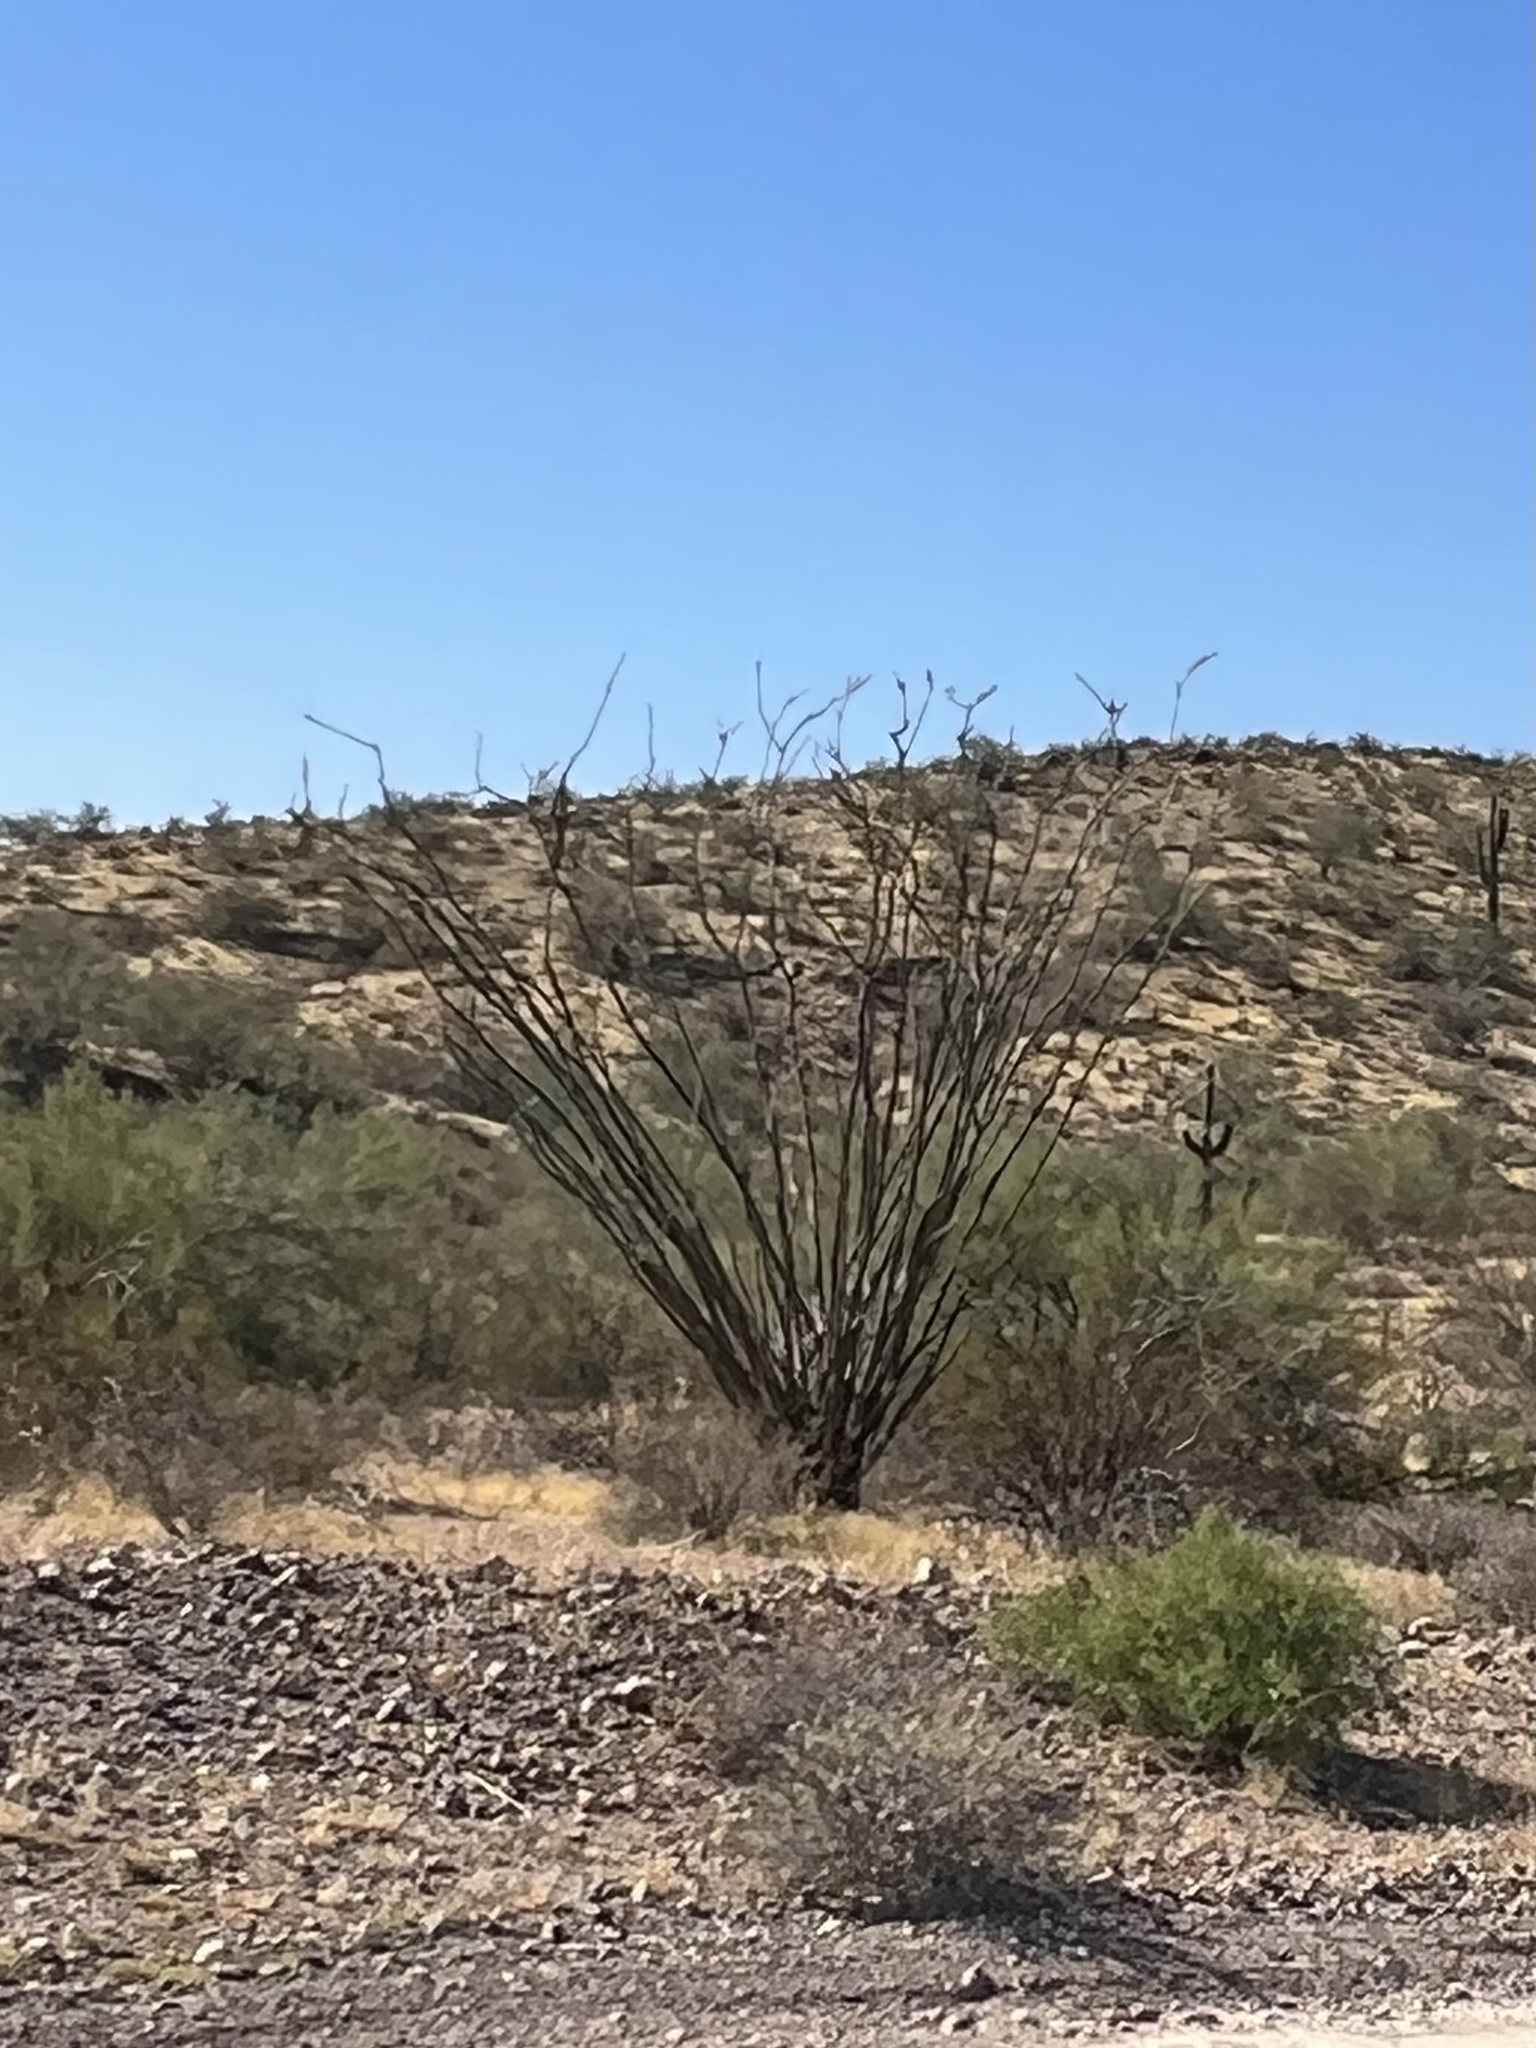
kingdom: Plantae
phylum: Tracheophyta
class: Magnoliopsida
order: Ericales
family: Fouquieriaceae
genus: Fouquieria
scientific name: Fouquieria splendens
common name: Vine-cactus
